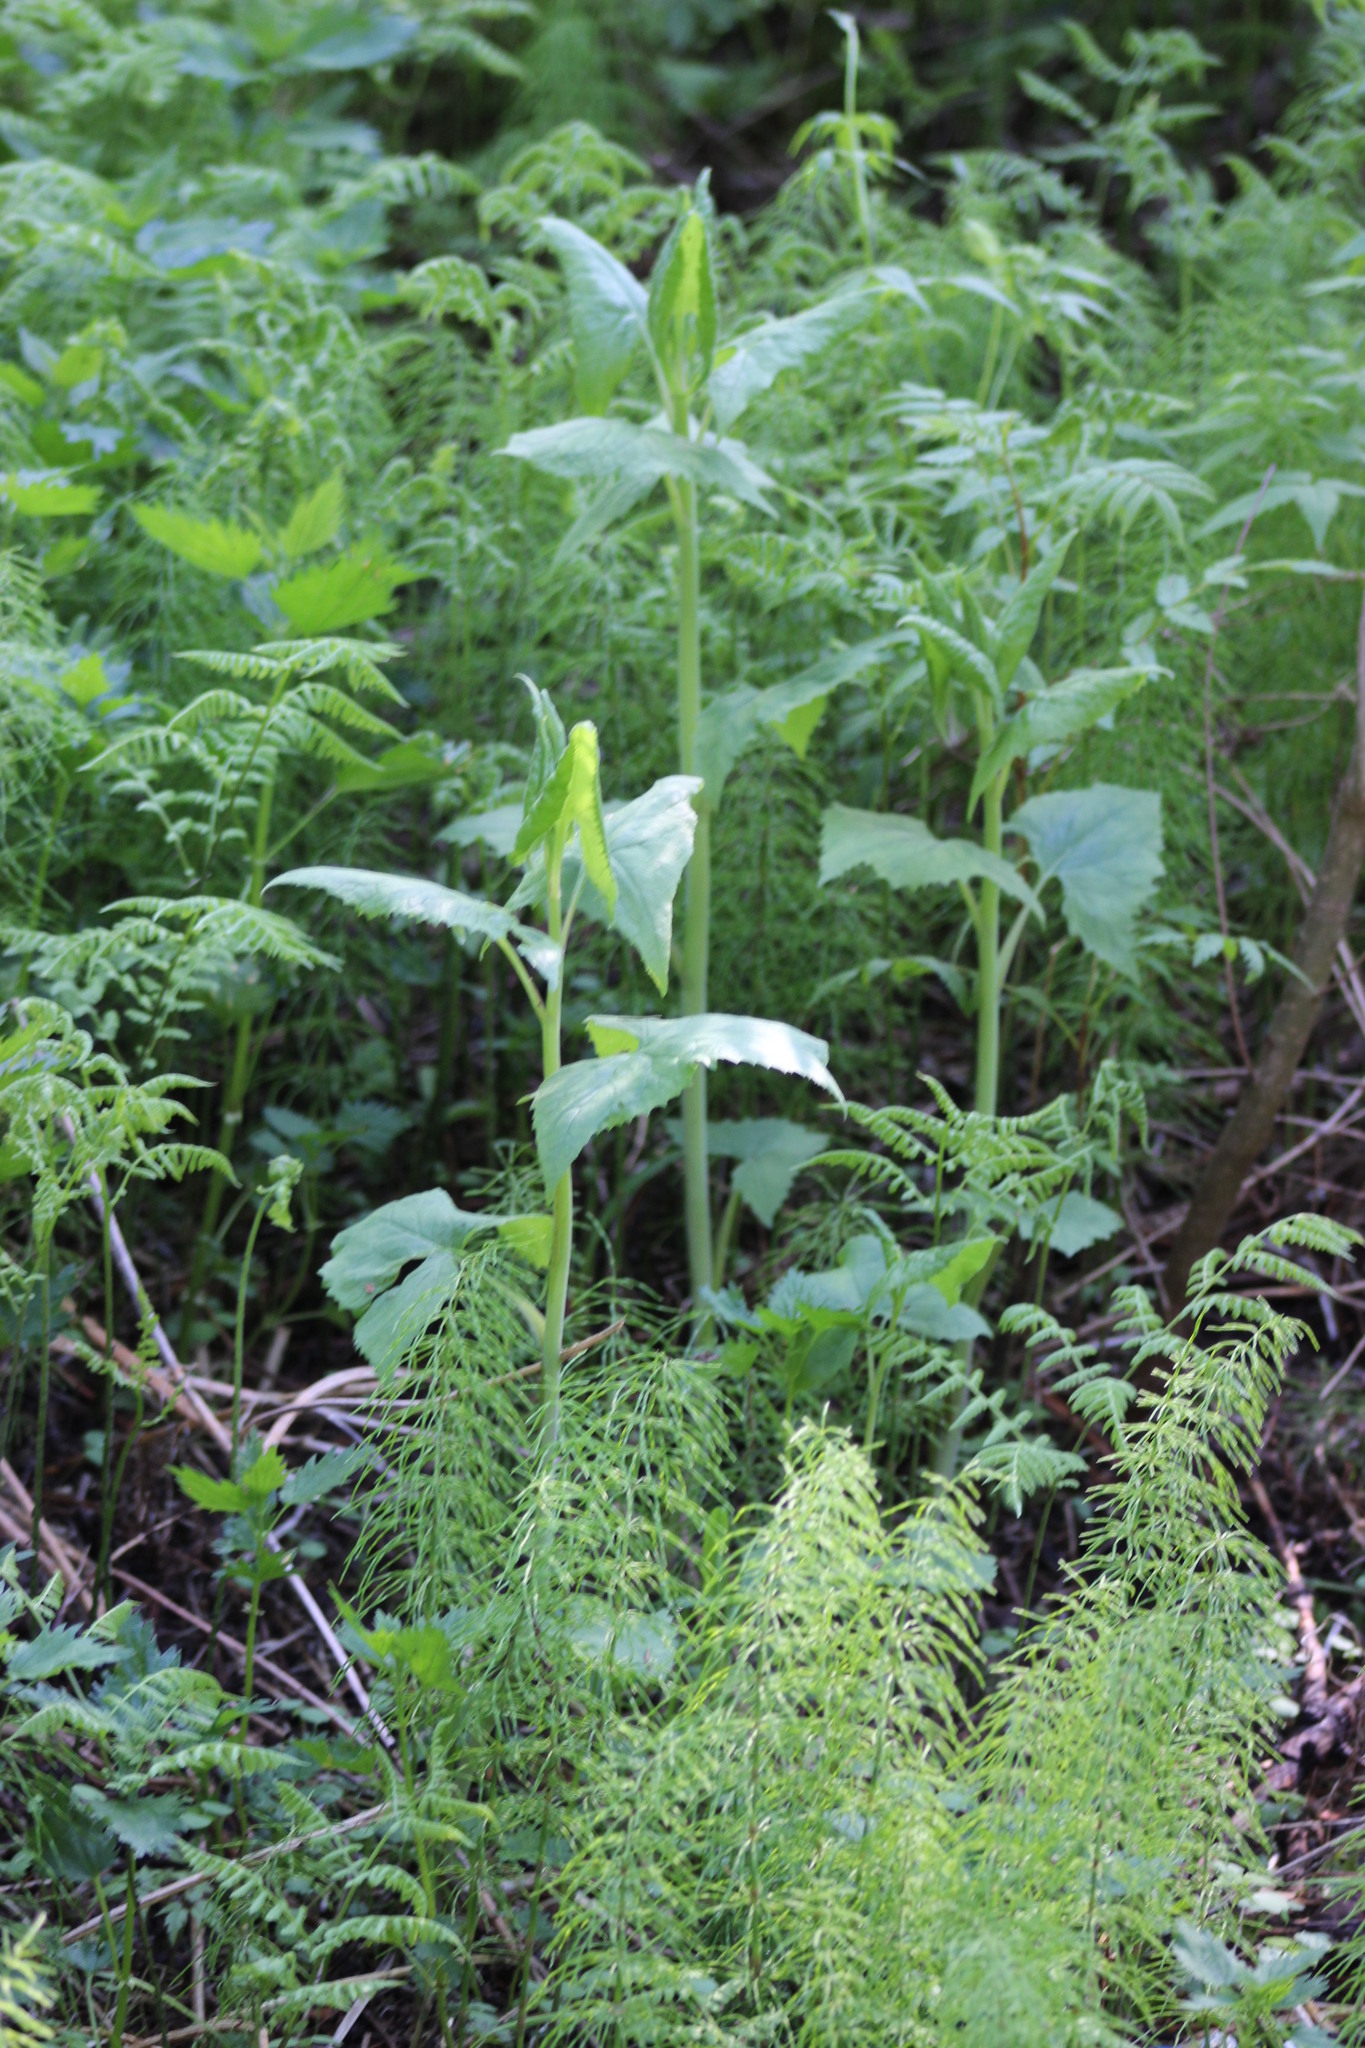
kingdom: Plantae
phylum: Tracheophyta
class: Magnoliopsida
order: Asterales
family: Asteraceae
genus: Parasenecio
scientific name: Parasenecio hastatus
